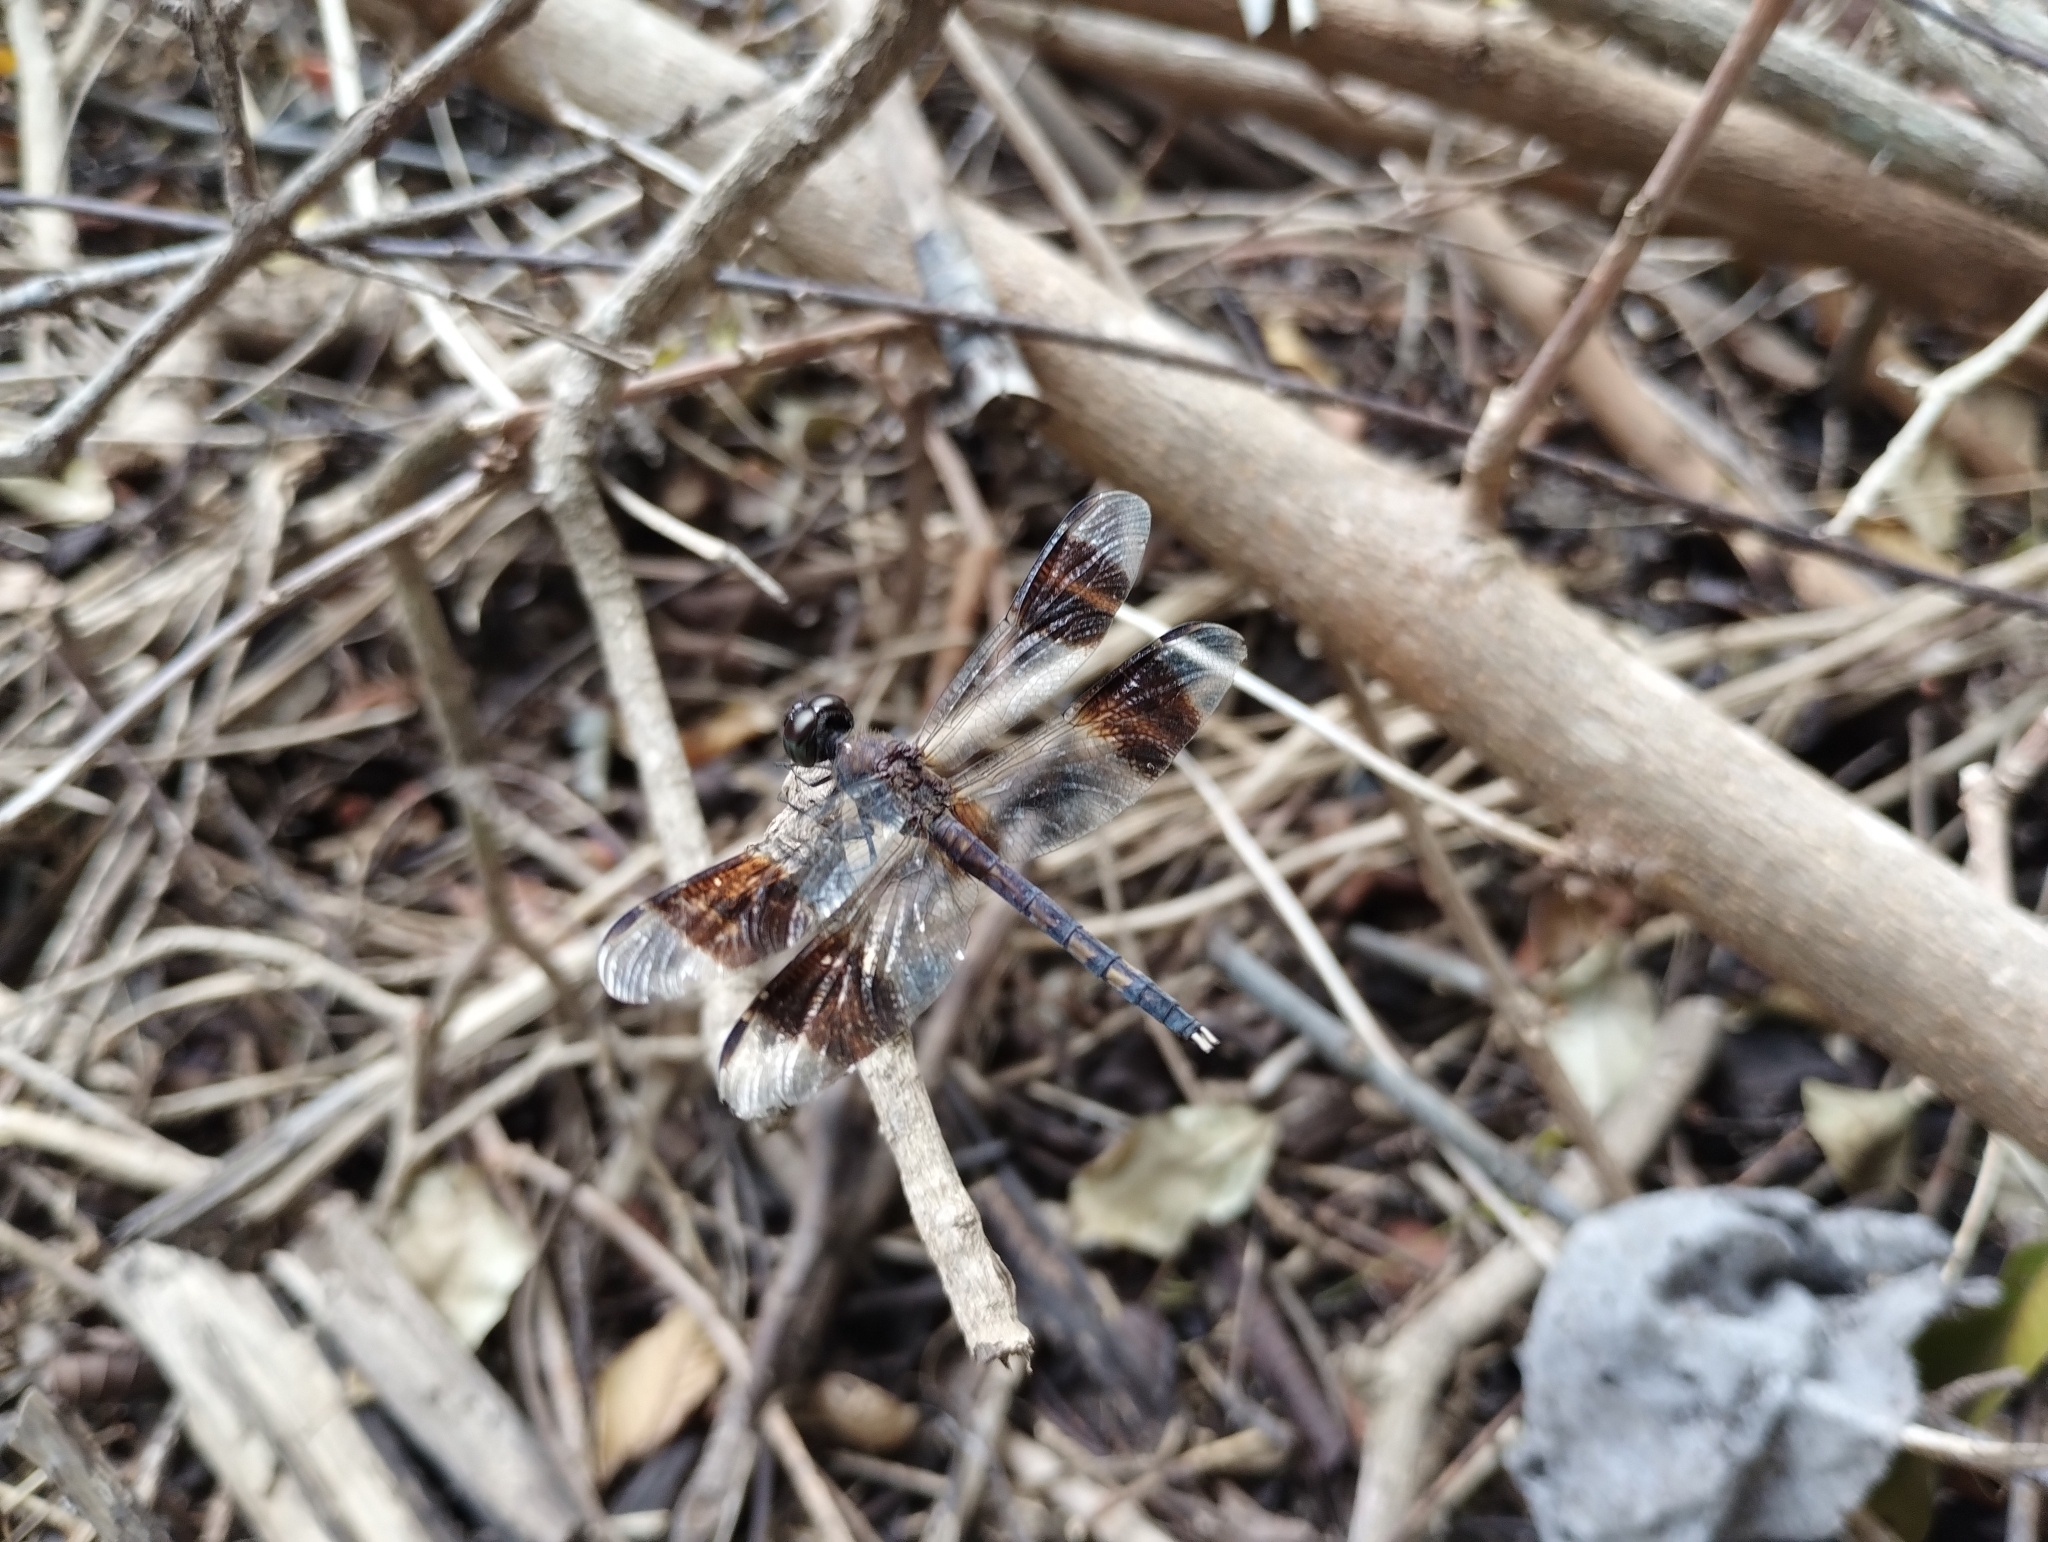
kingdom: Animalia
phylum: Arthropoda
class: Insecta
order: Odonata
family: Libellulidae
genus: Erythrodiplax
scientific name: Erythrodiplax umbrata
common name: Band-winged dragonlet
